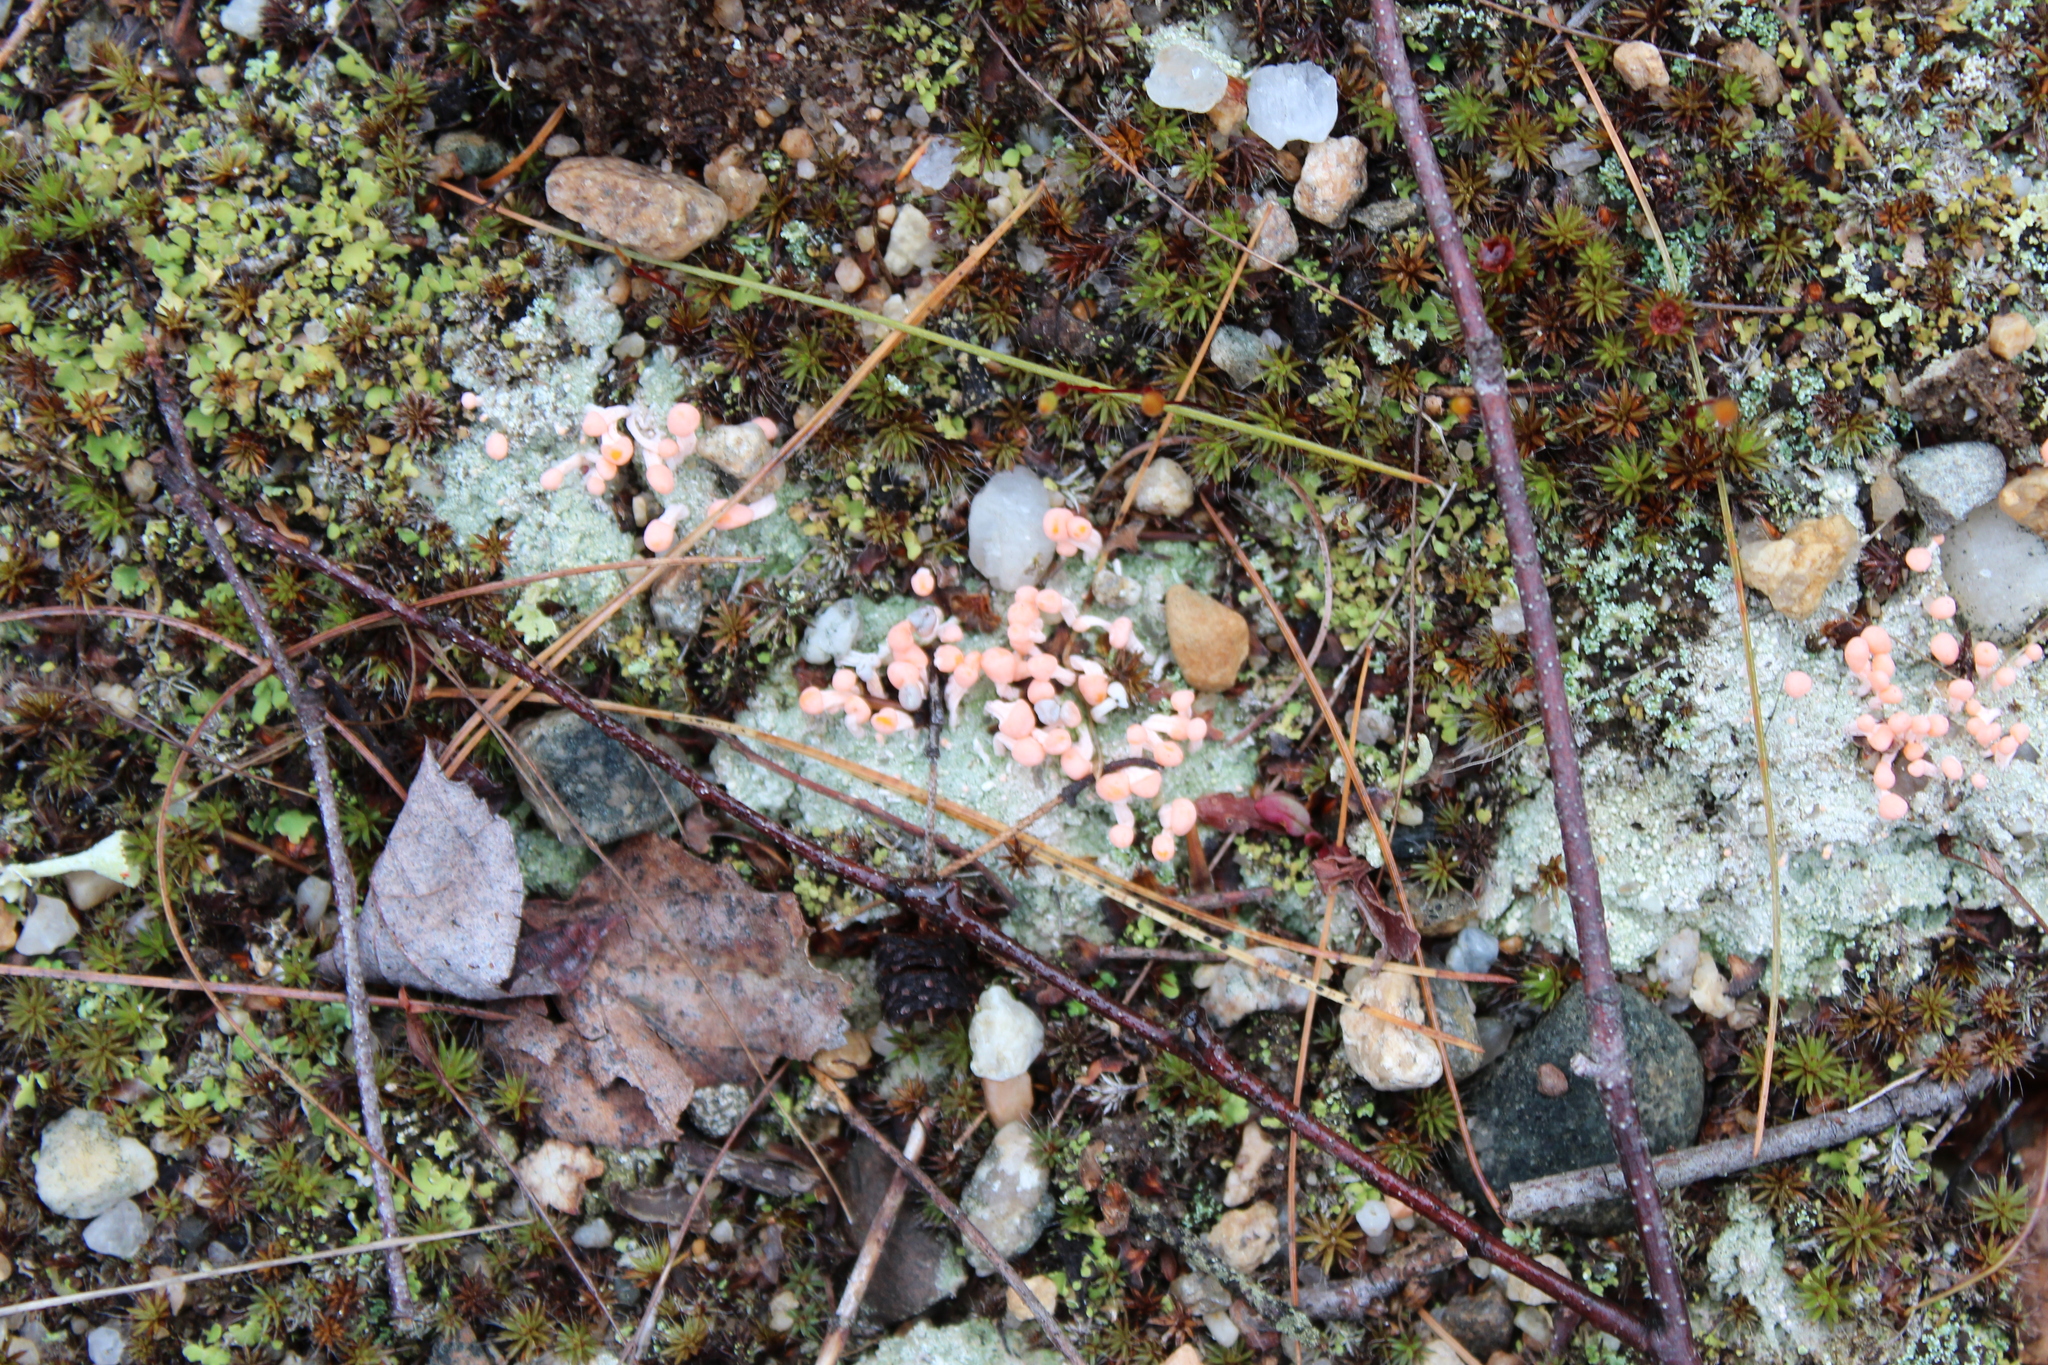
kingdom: Fungi
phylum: Ascomycota
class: Lecanoromycetes
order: Pertusariales
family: Icmadophilaceae
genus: Dibaeis
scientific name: Dibaeis baeomyces
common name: Pink earth lichen
